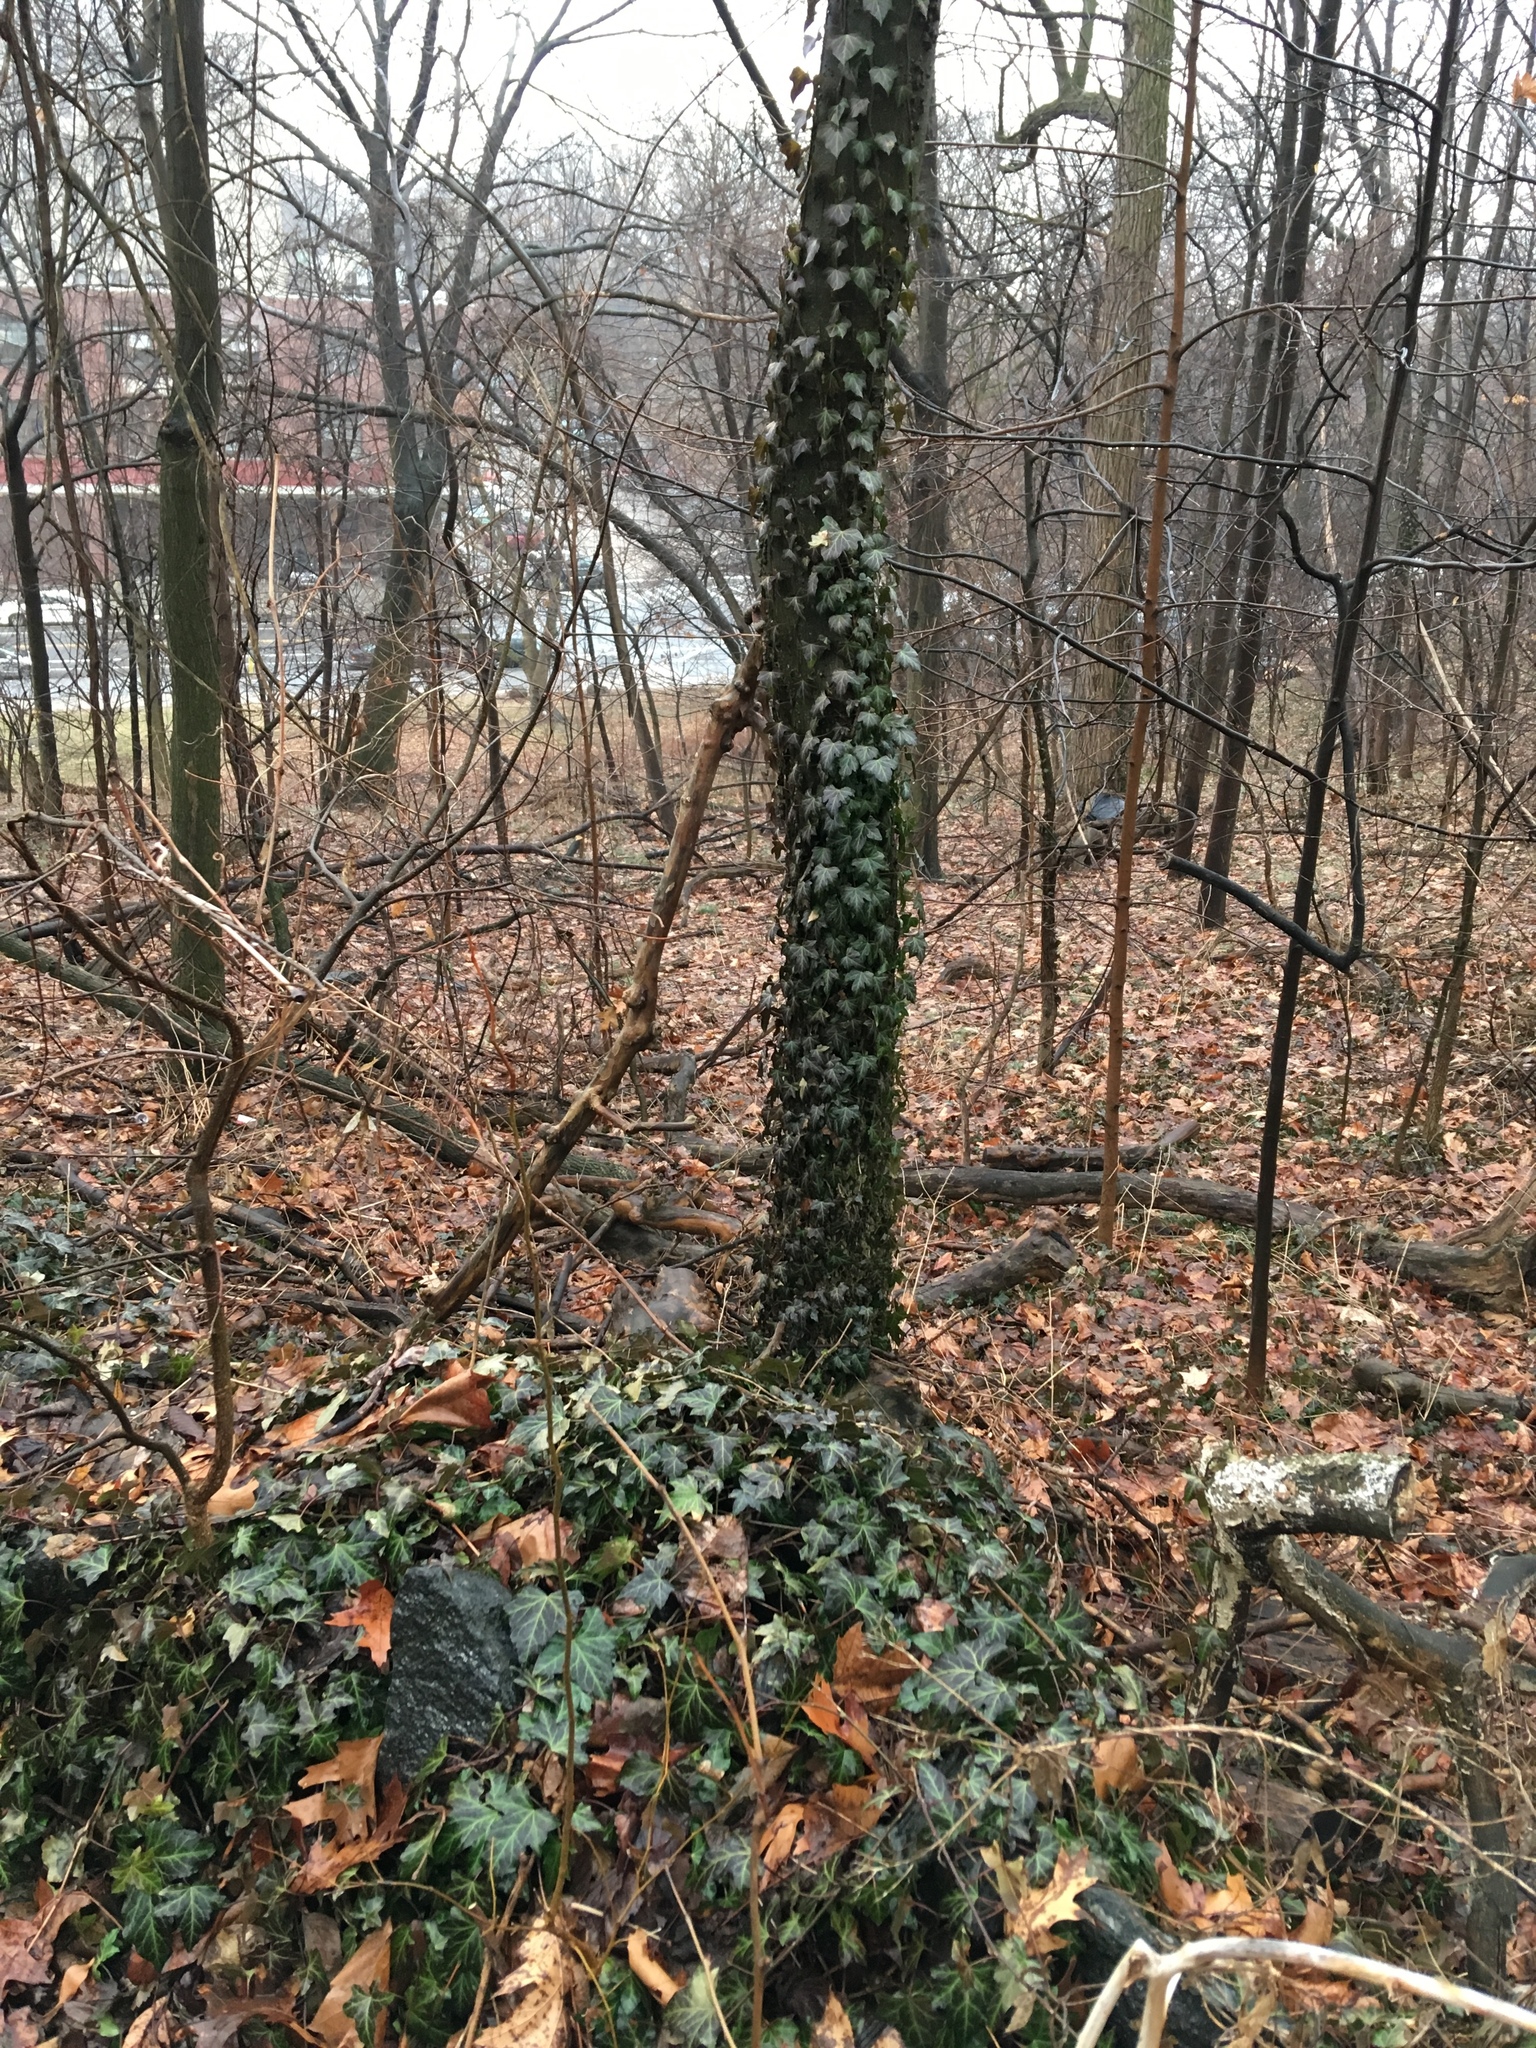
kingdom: Plantae
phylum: Tracheophyta
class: Magnoliopsida
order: Apiales
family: Araliaceae
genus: Hedera
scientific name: Hedera helix
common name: Ivy
